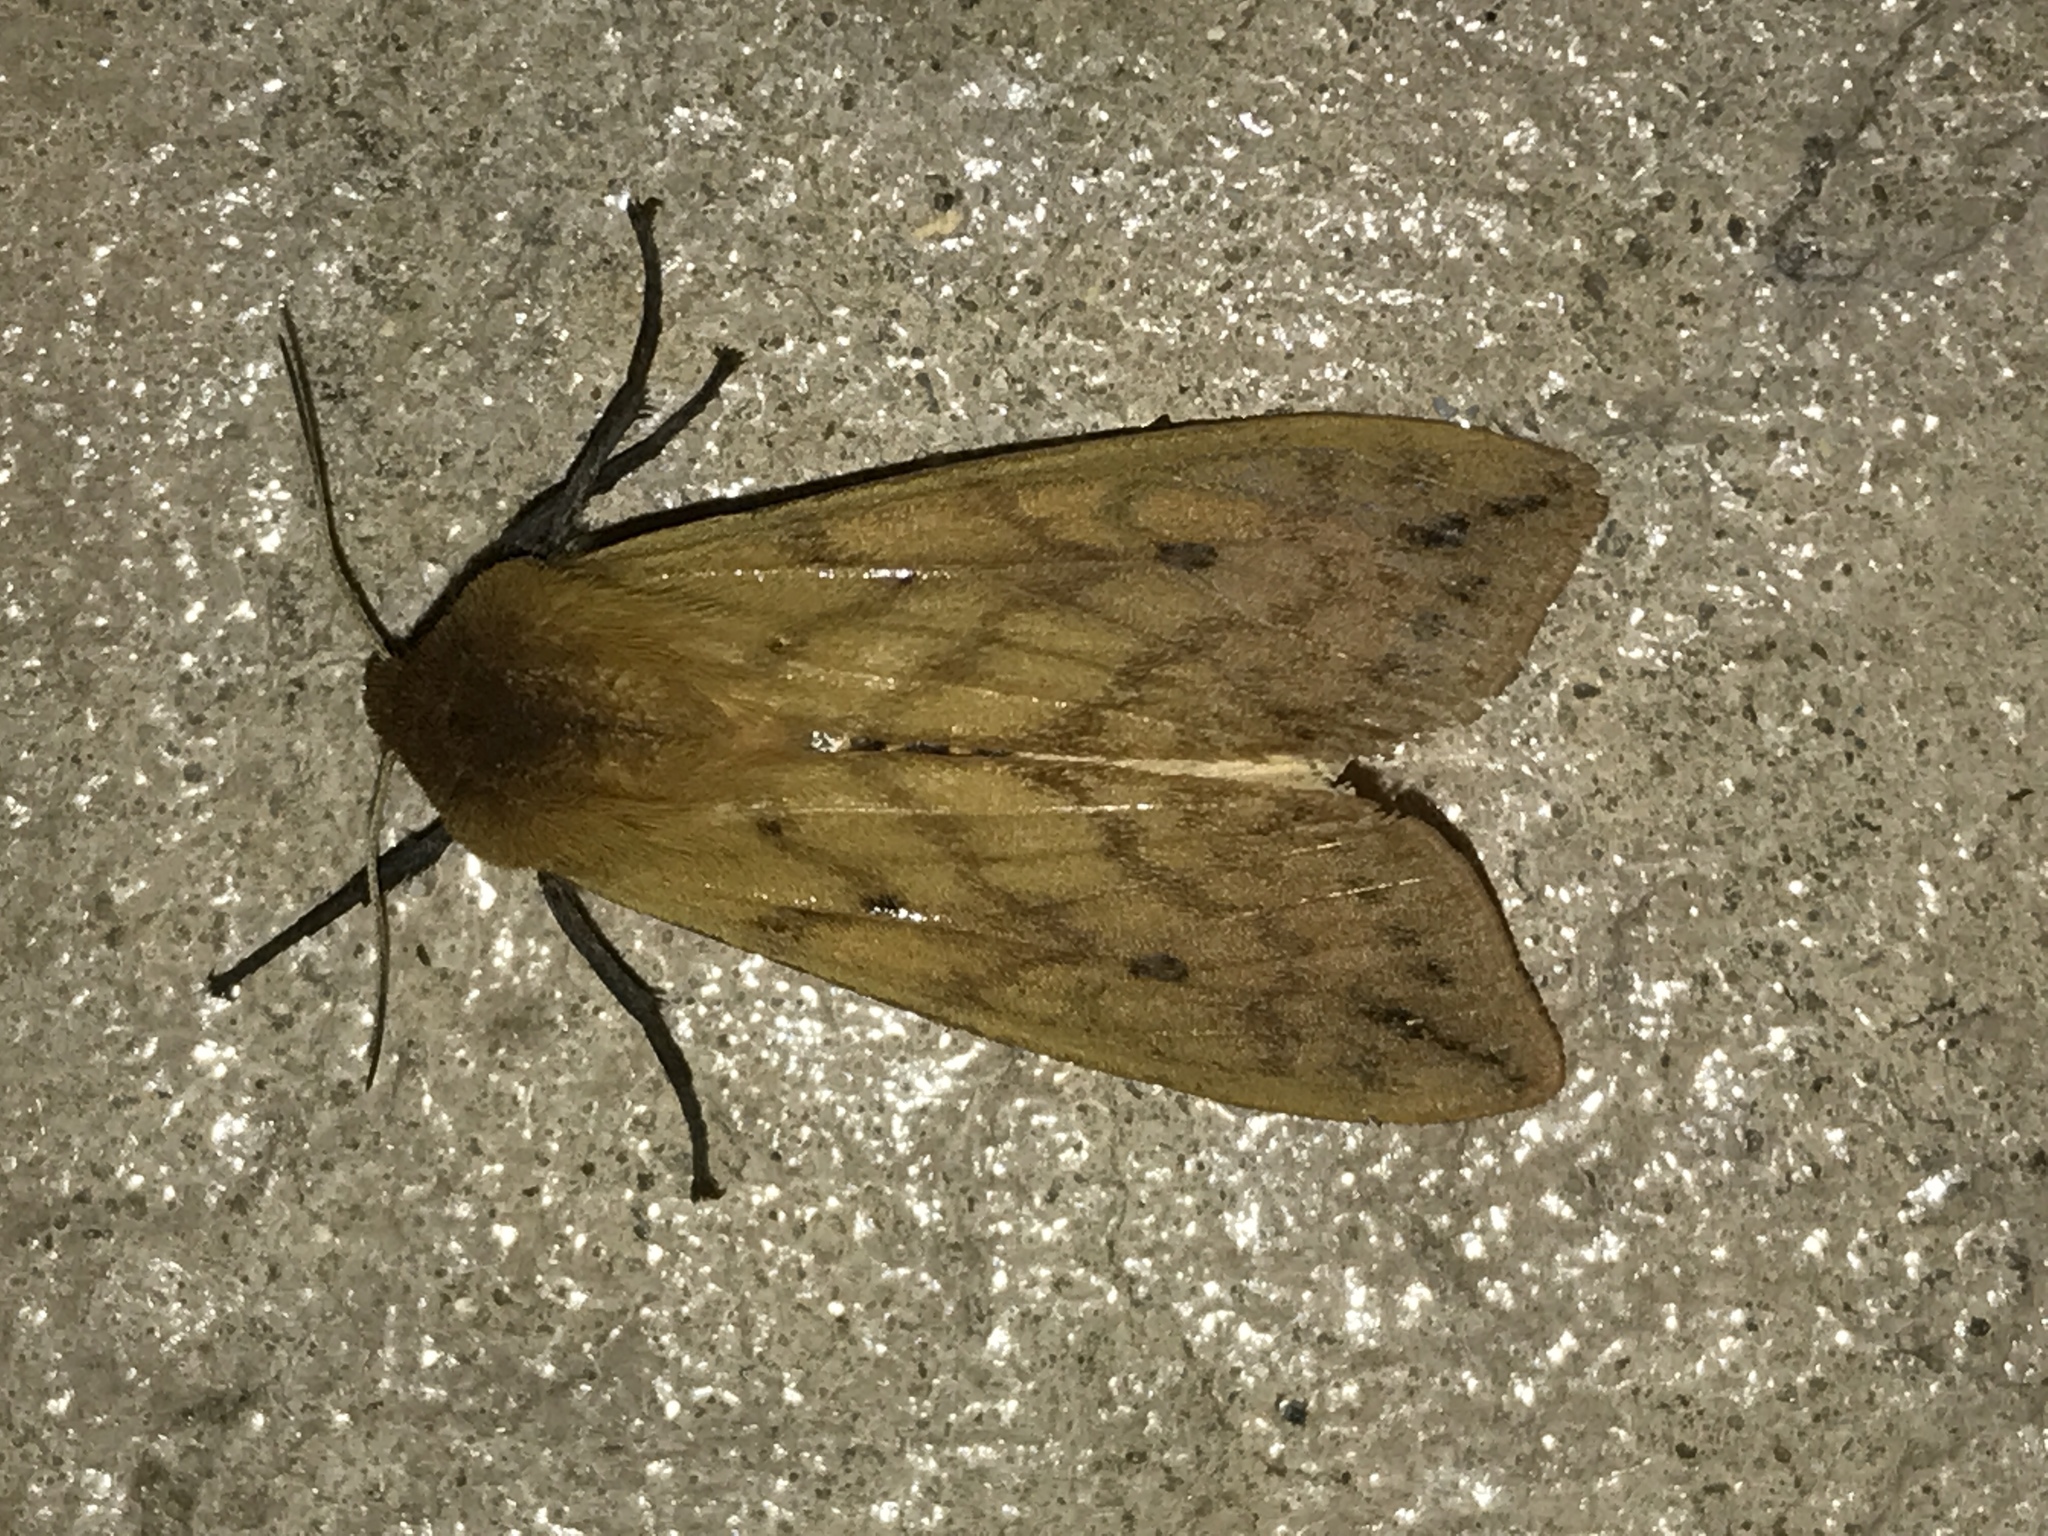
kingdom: Animalia
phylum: Arthropoda
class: Insecta
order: Lepidoptera
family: Erebidae
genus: Pyrrharctia
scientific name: Pyrrharctia isabella
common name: Isabella tiger moth
